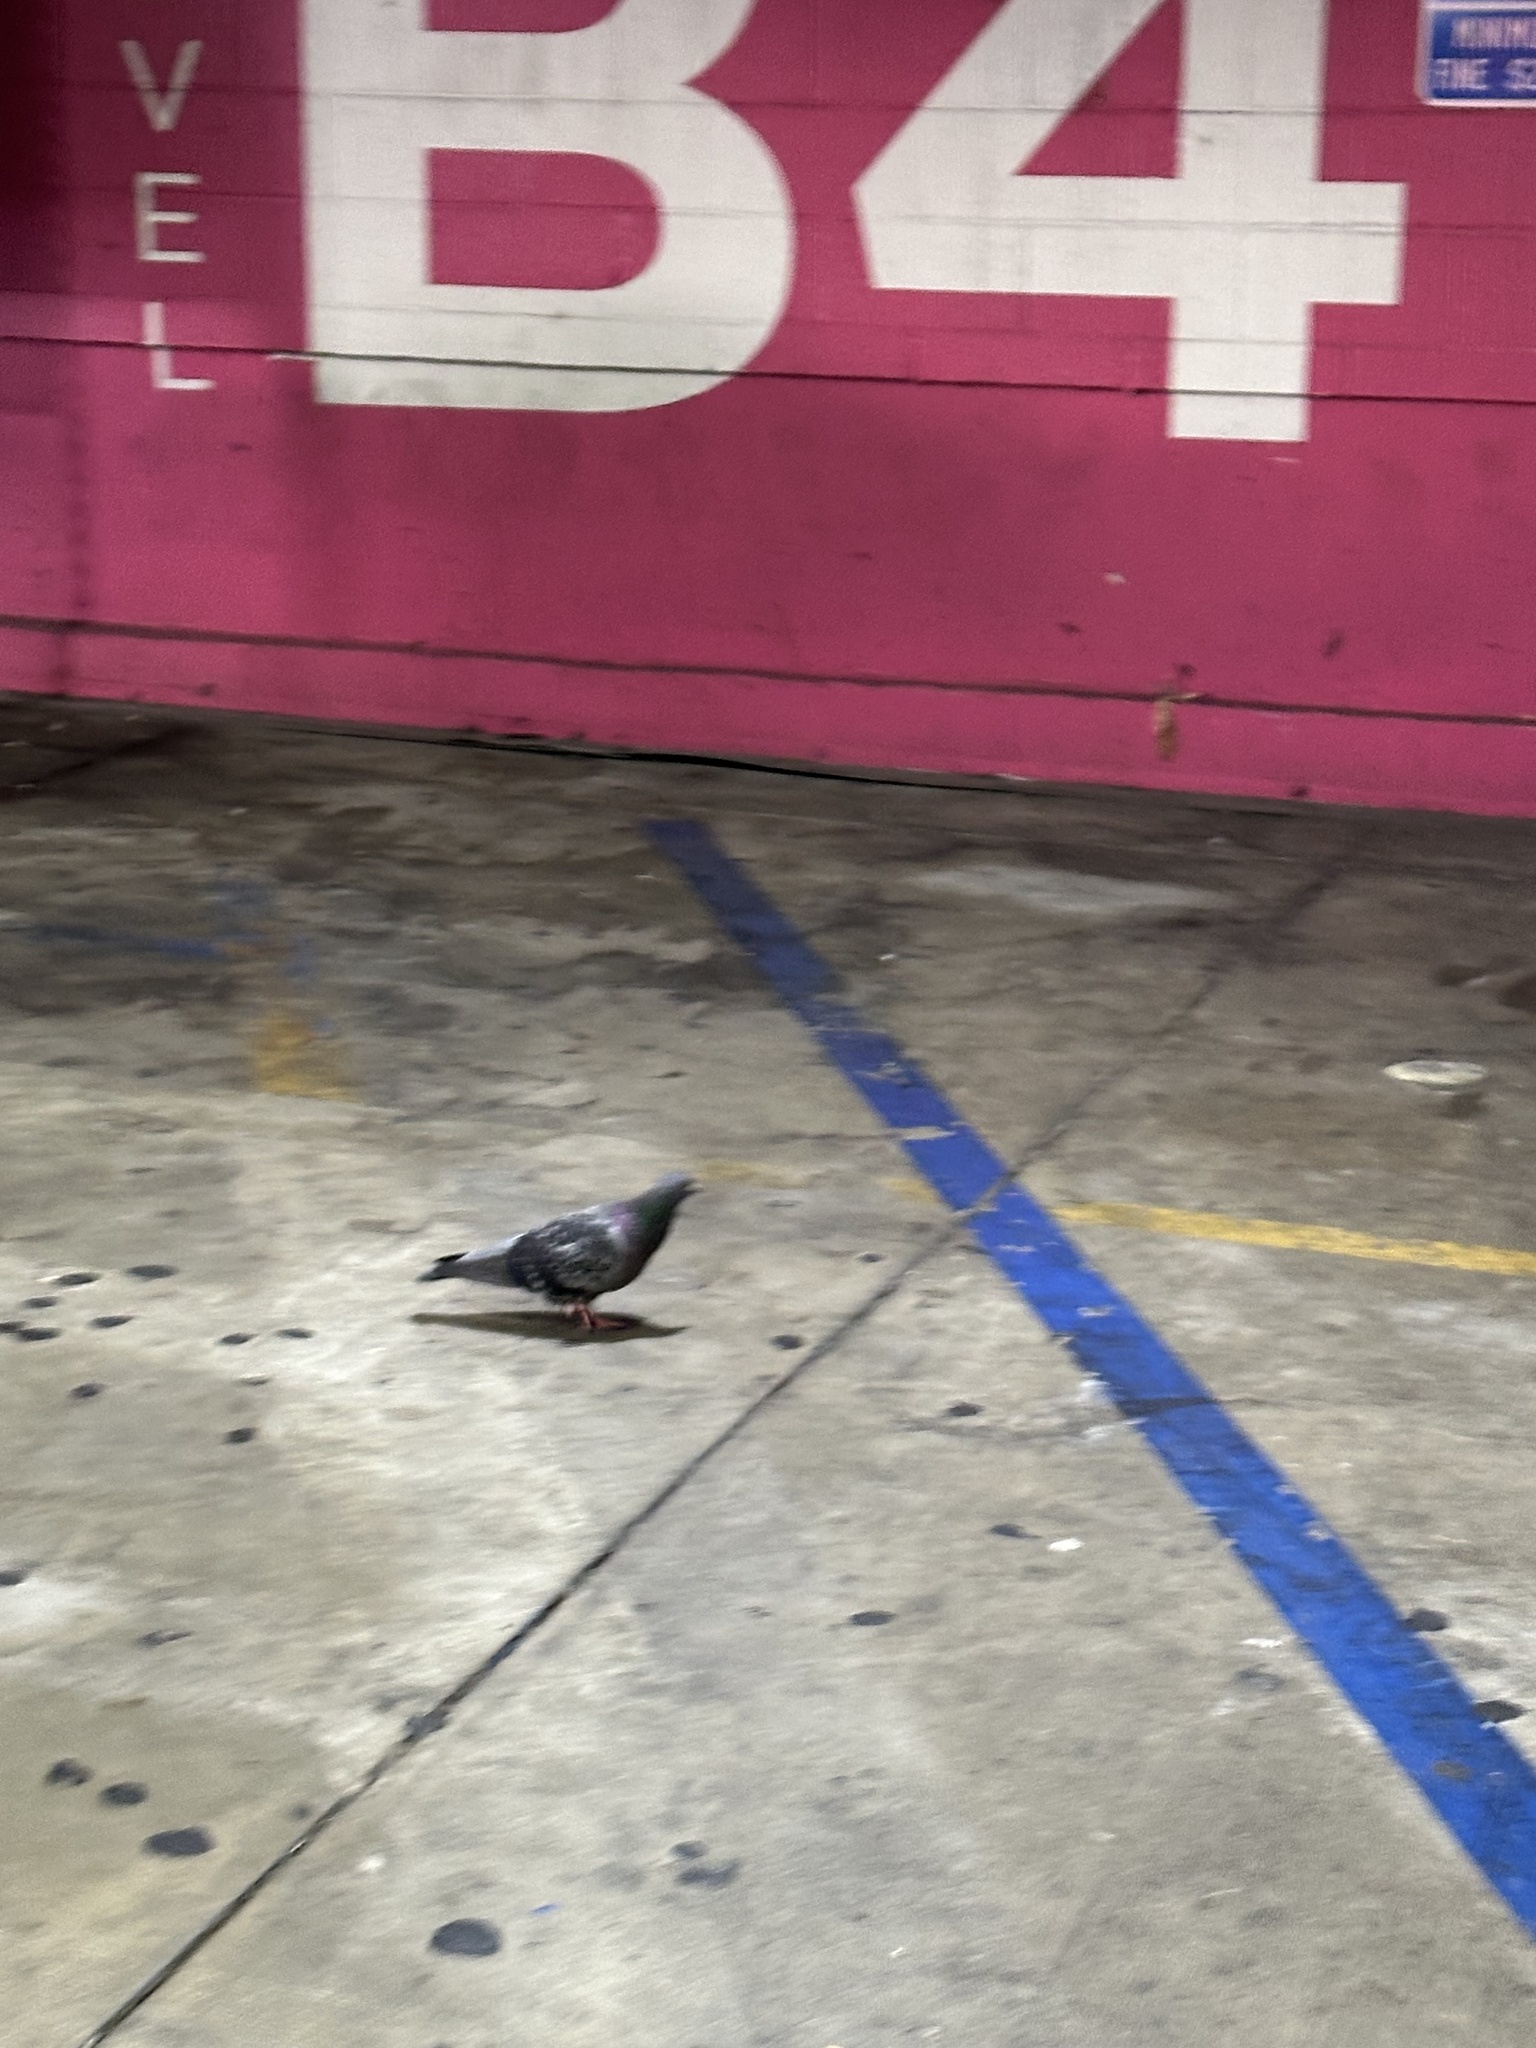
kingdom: Animalia
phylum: Chordata
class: Aves
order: Columbiformes
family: Columbidae
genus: Columba
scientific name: Columba livia
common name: Rock pigeon
